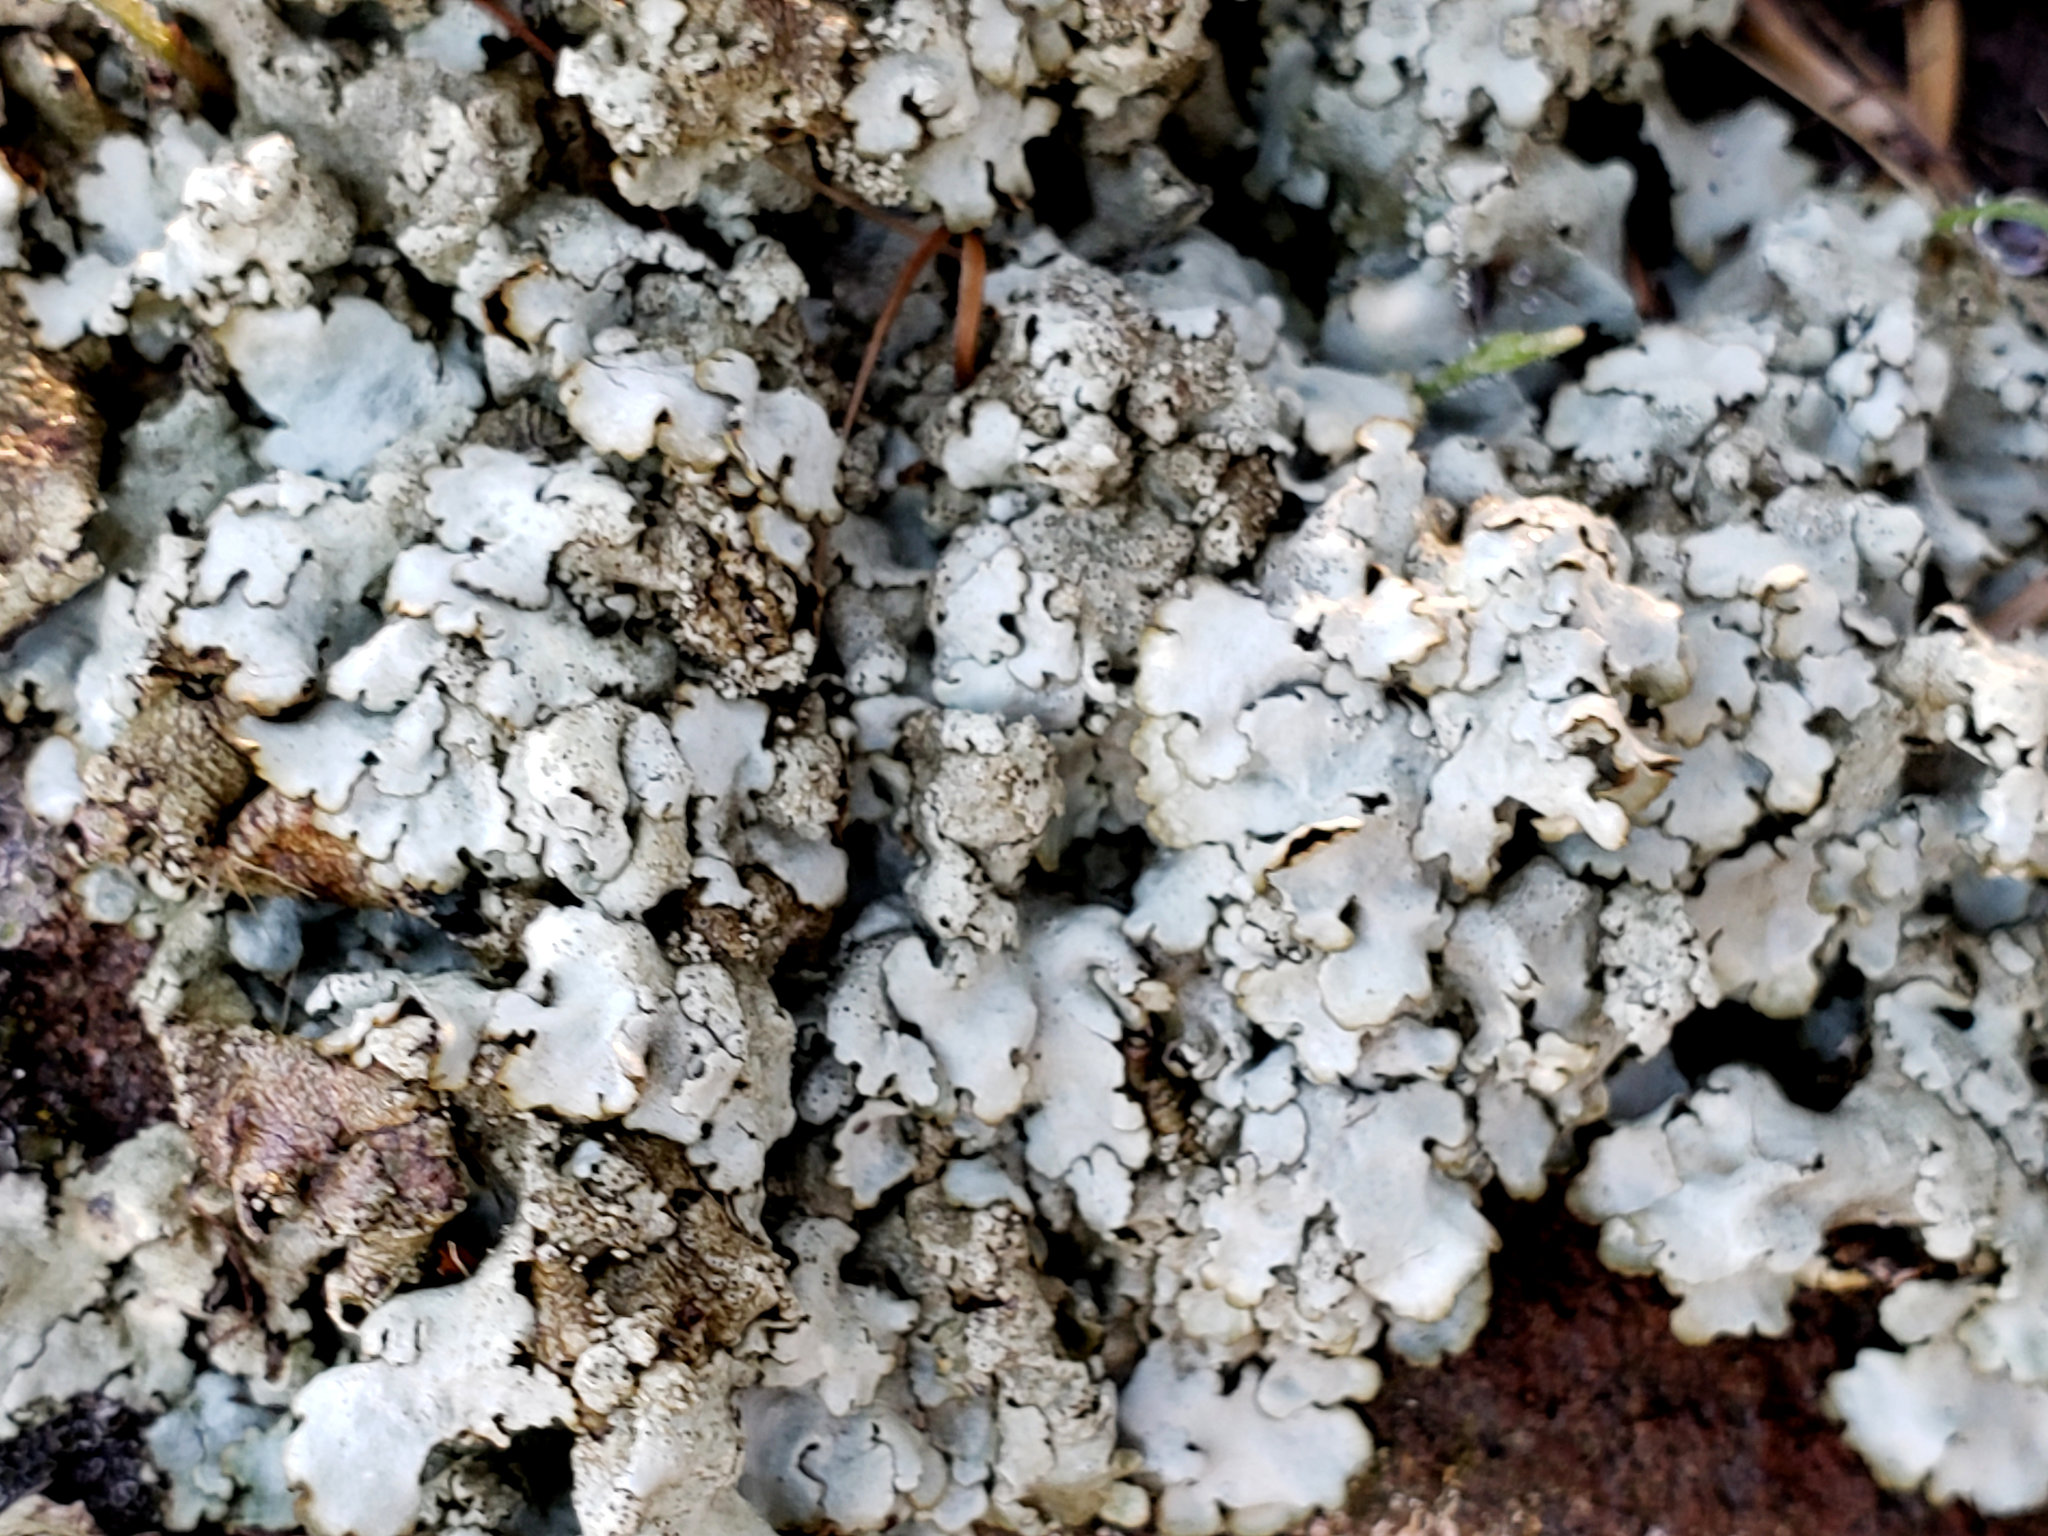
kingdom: Fungi
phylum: Ascomycota
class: Lecanoromycetes
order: Lecanorales
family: Parmeliaceae
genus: Xanthoparmelia
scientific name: Xanthoparmelia cumberlandia
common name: Cumberland rock shield
